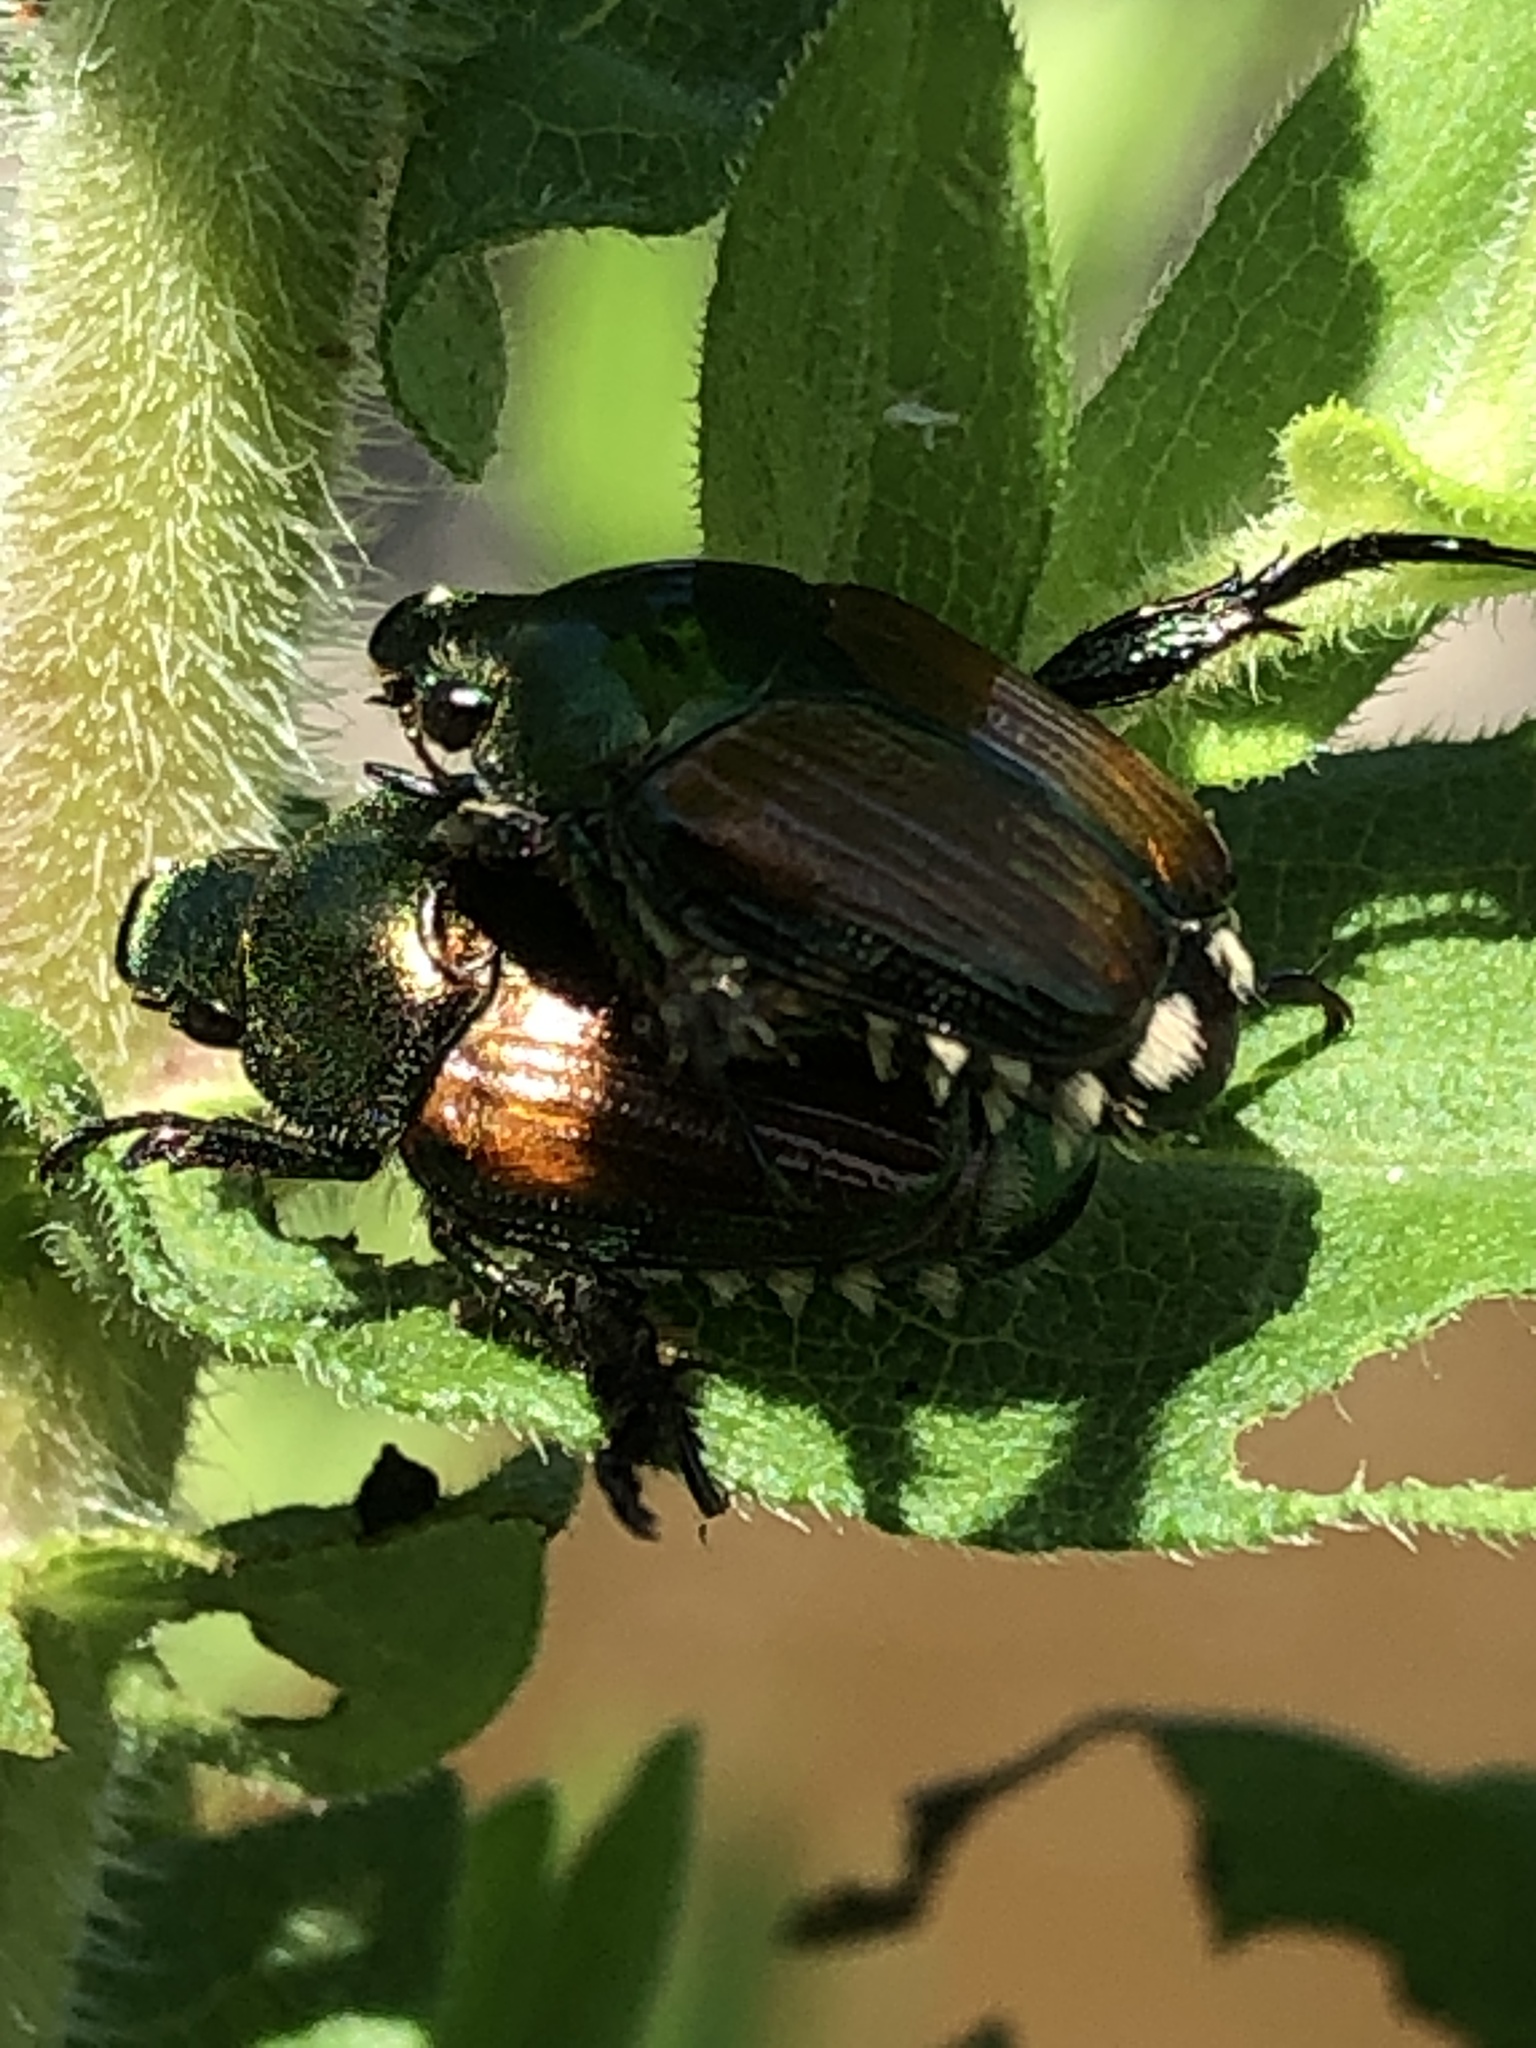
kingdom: Animalia
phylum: Arthropoda
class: Insecta
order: Coleoptera
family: Scarabaeidae
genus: Popillia
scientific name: Popillia japonica
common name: Japanese beetle
